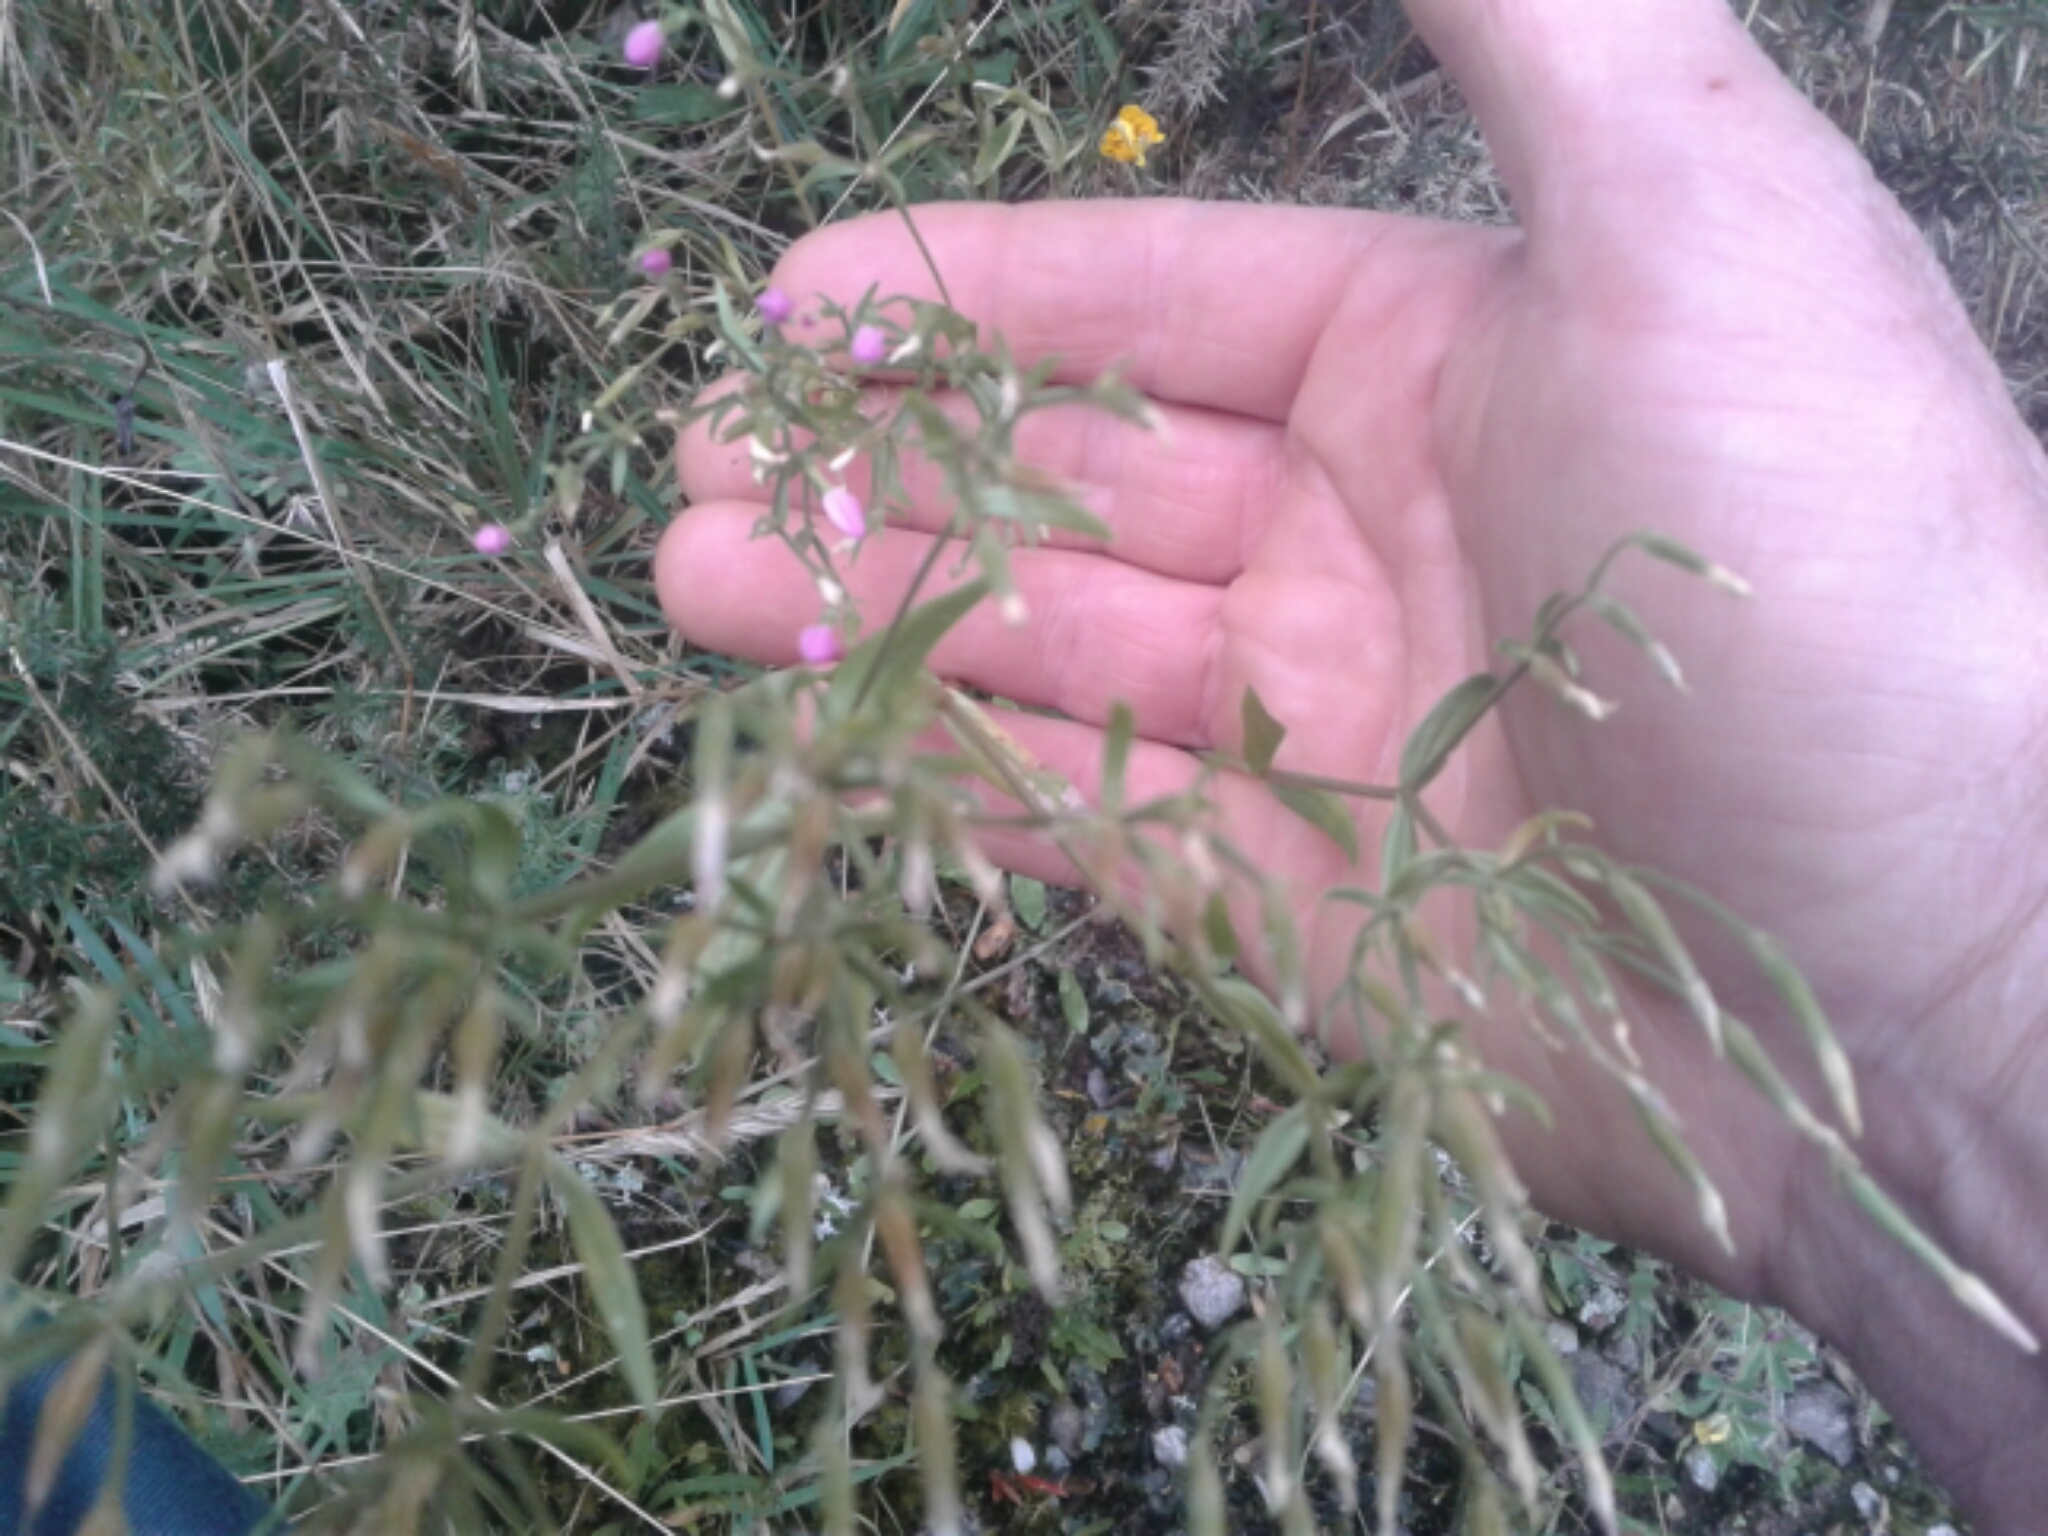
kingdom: Plantae
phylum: Tracheophyta
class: Magnoliopsida
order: Caryophyllales
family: Caryophyllaceae
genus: Spergularia
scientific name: Spergularia
